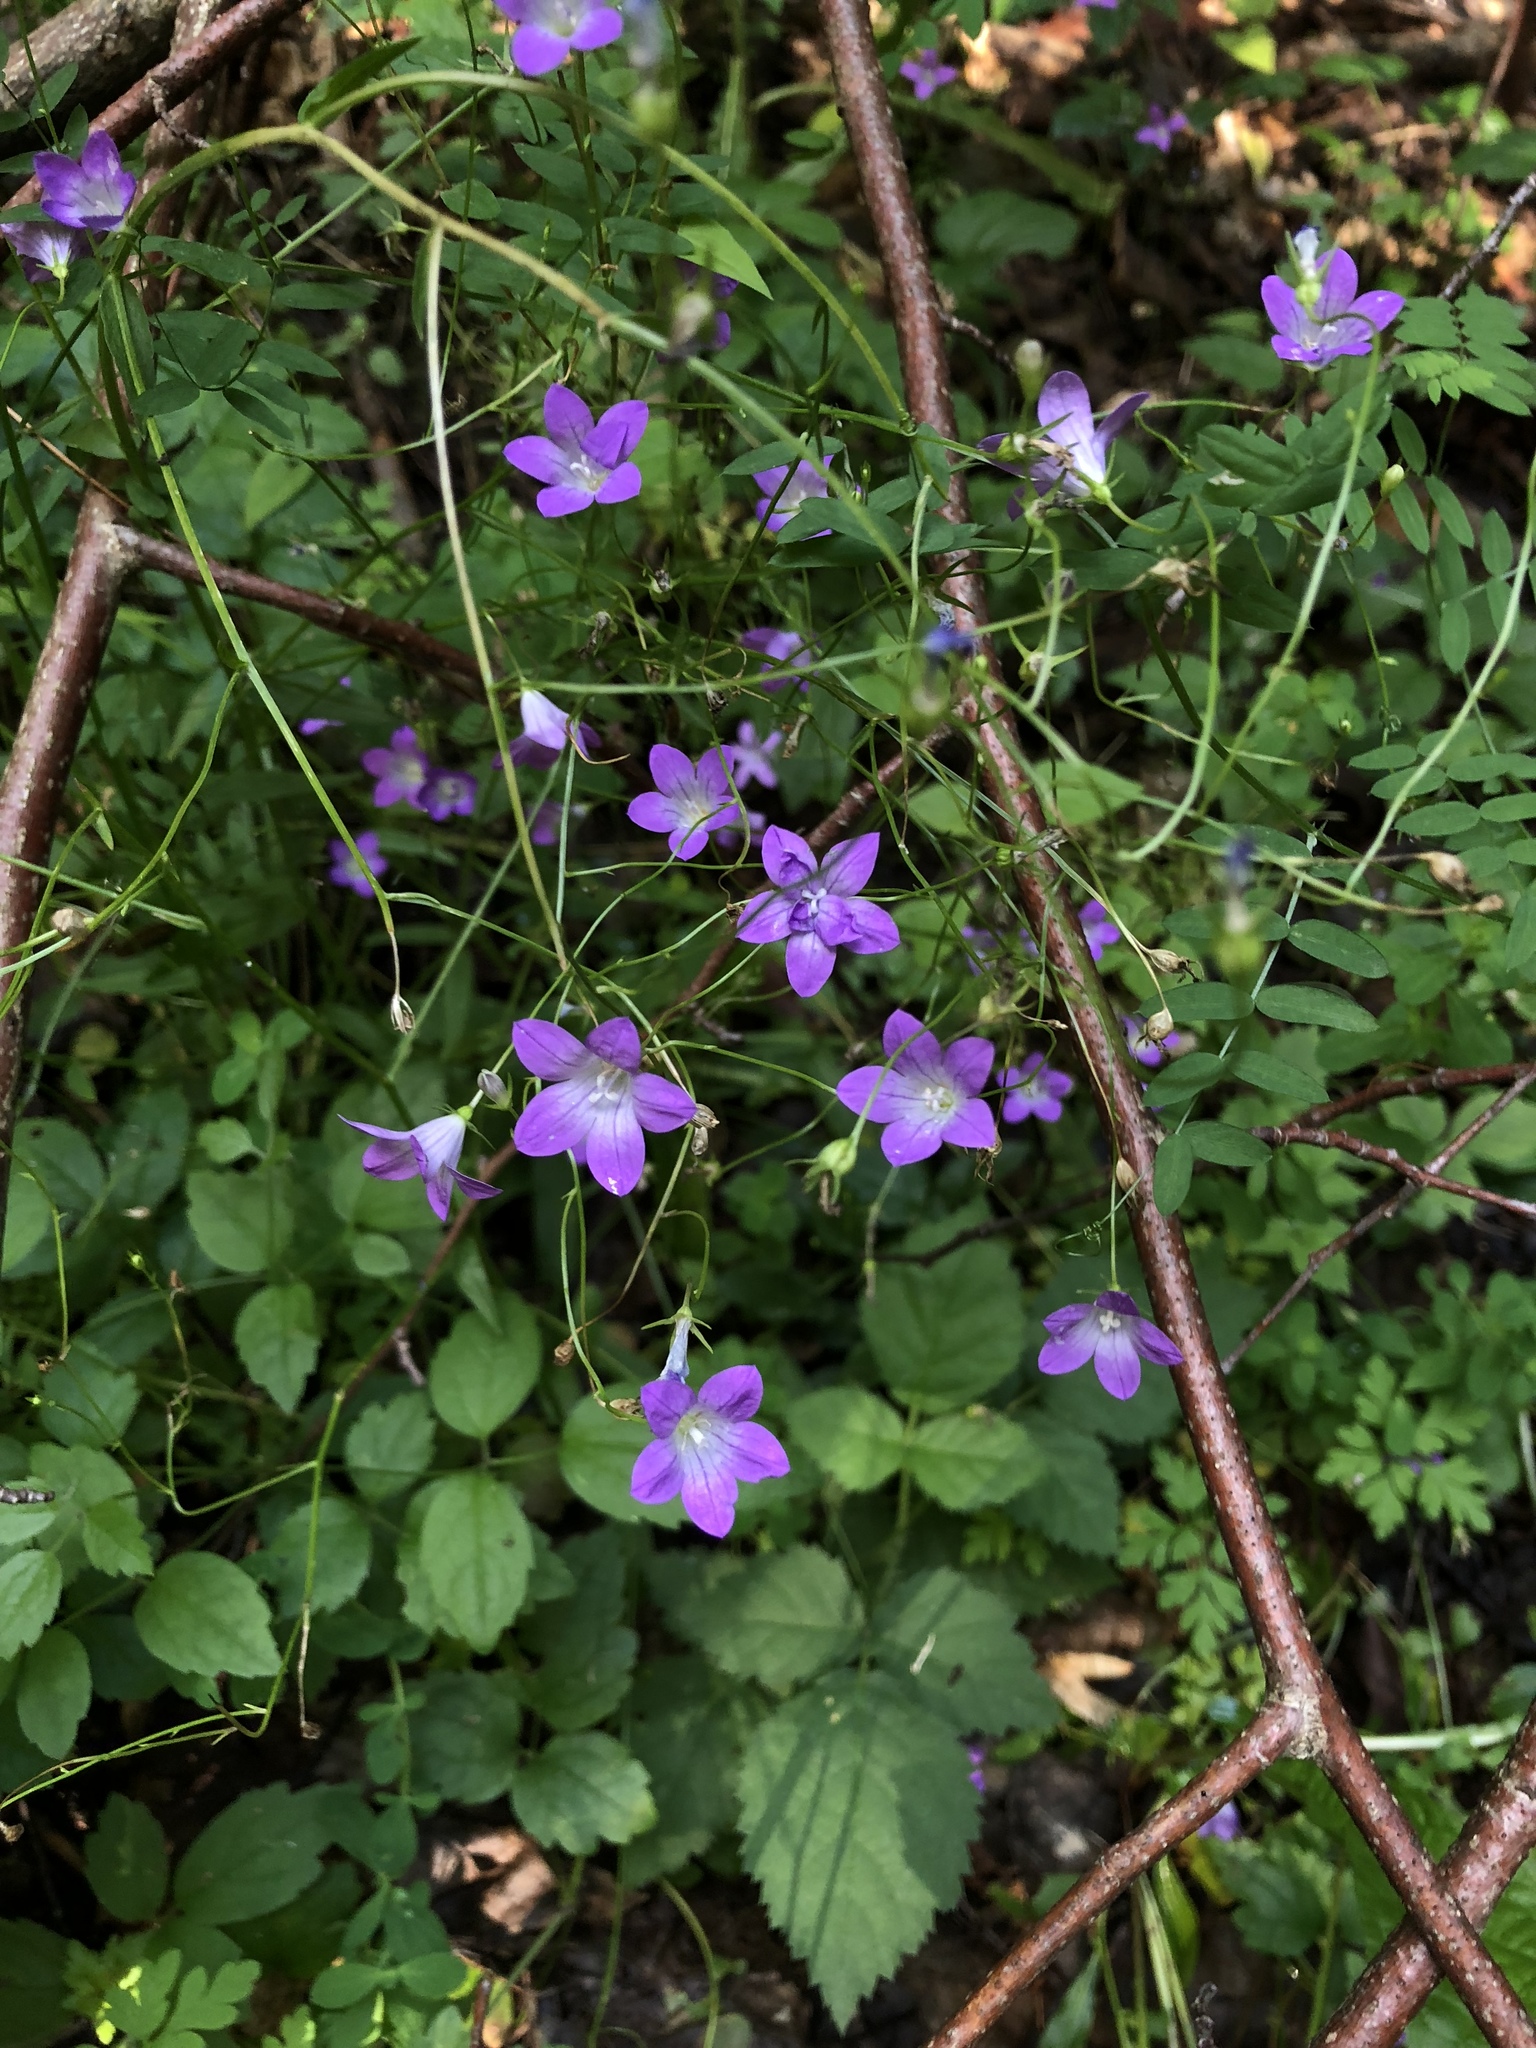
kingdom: Plantae
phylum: Tracheophyta
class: Magnoliopsida
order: Asterales
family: Campanulaceae
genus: Campanula
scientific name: Campanula patula
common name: Spreading bellflower
